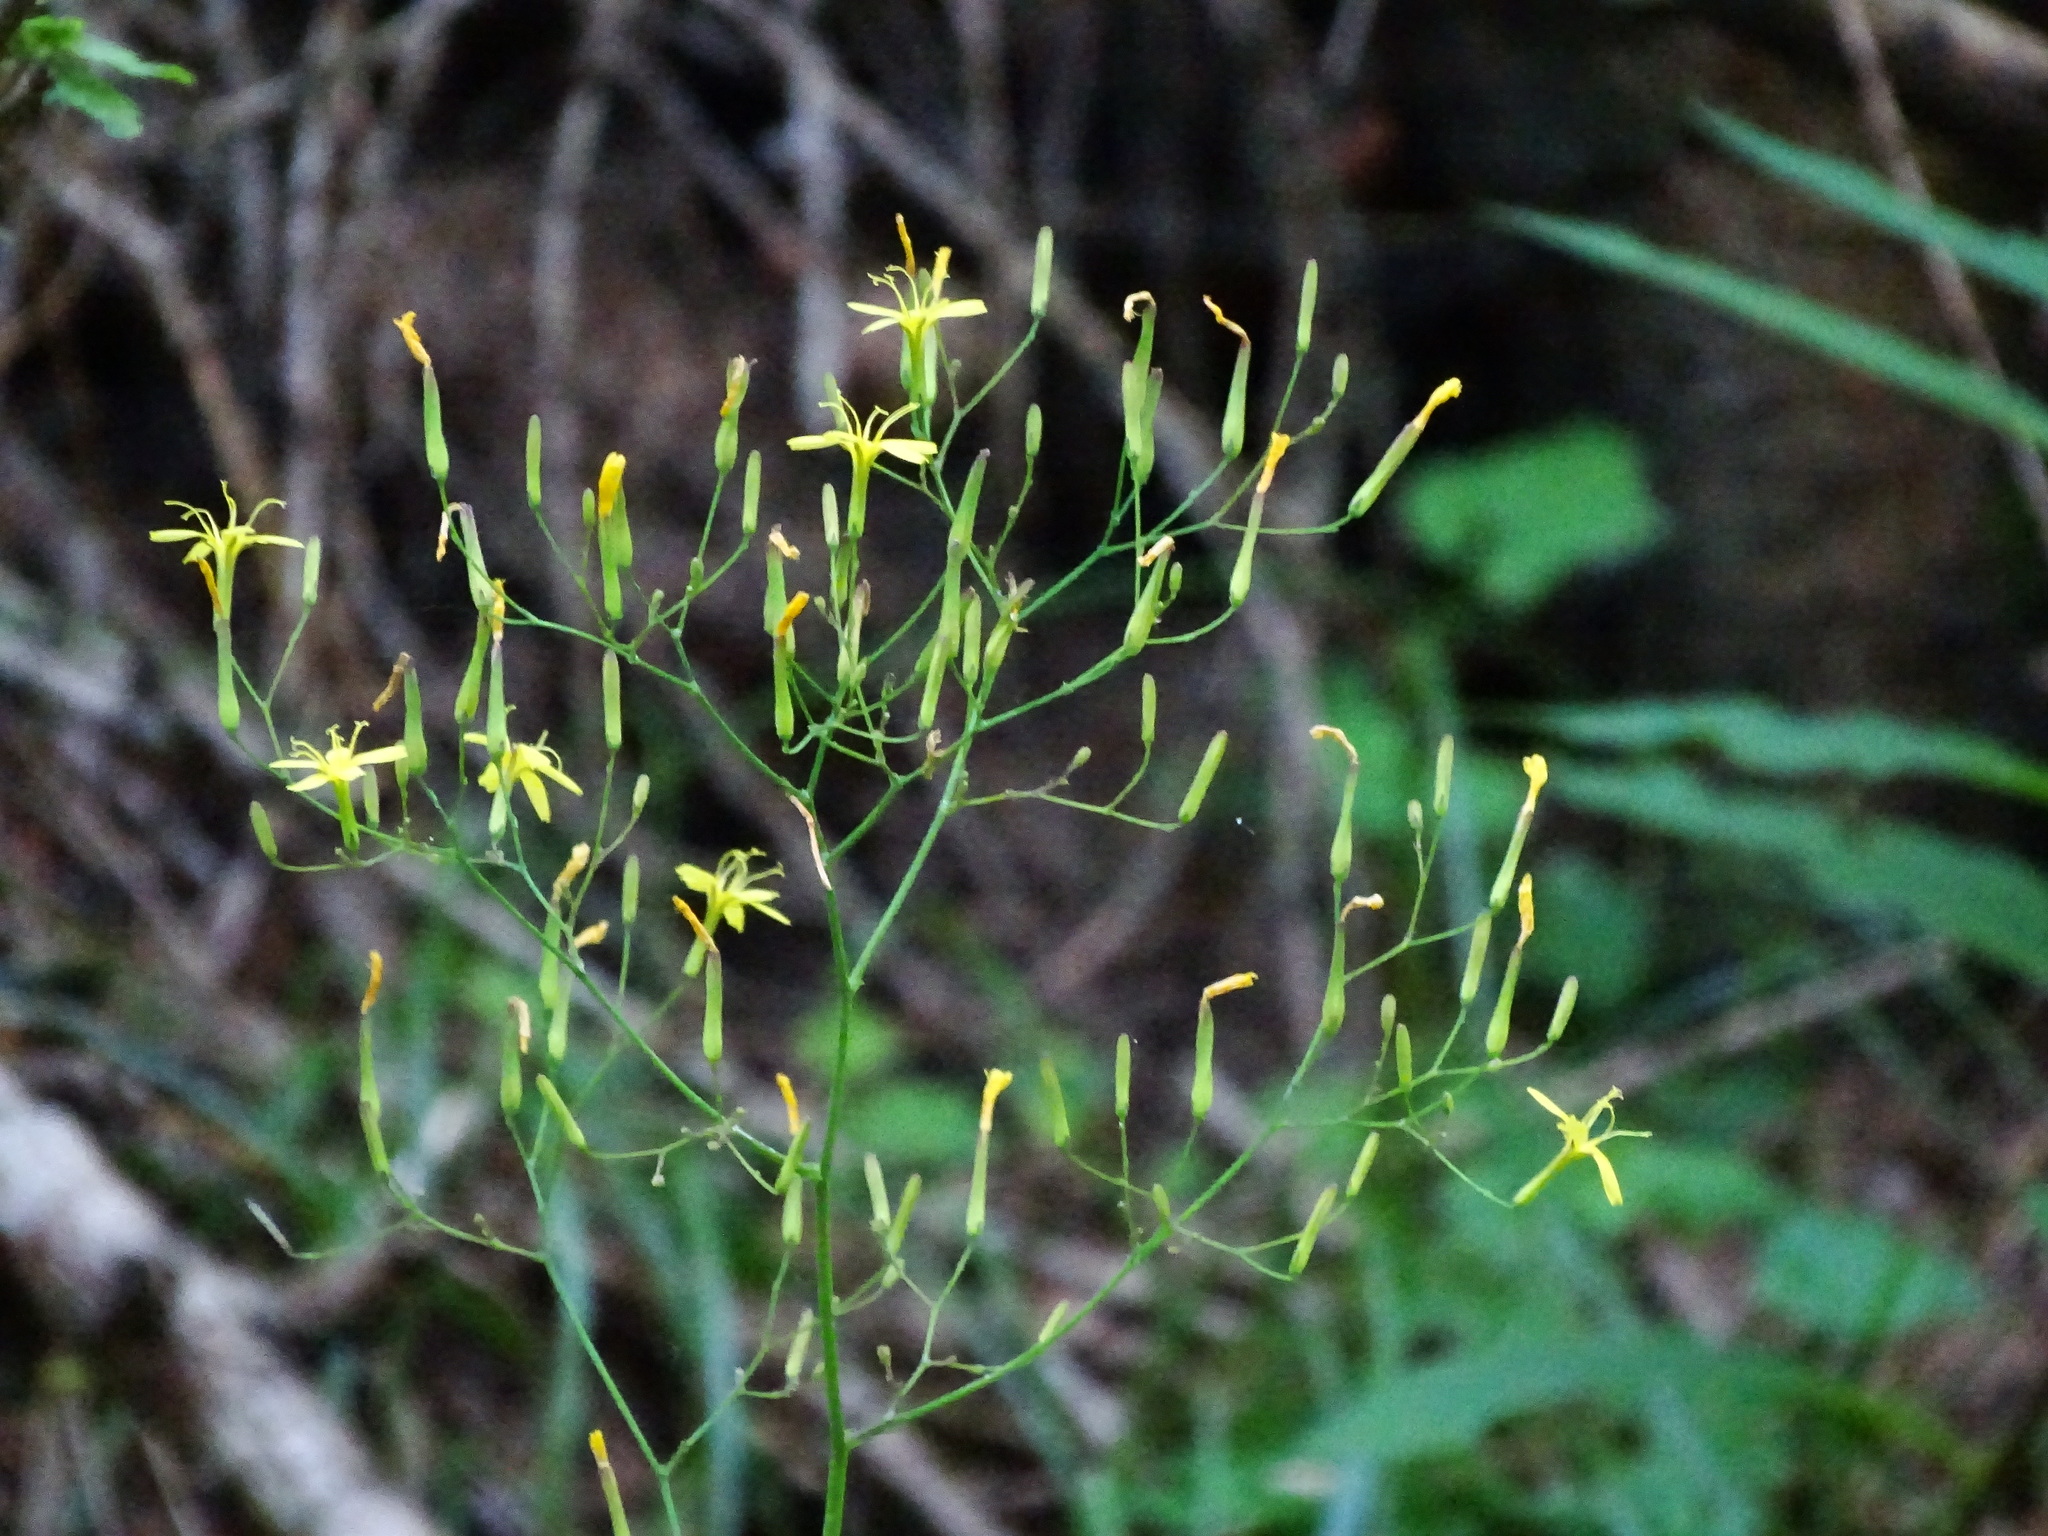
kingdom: Plantae
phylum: Tracheophyta
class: Magnoliopsida
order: Asterales
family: Asteraceae
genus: Mycelis
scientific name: Mycelis muralis
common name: Wall lettuce
